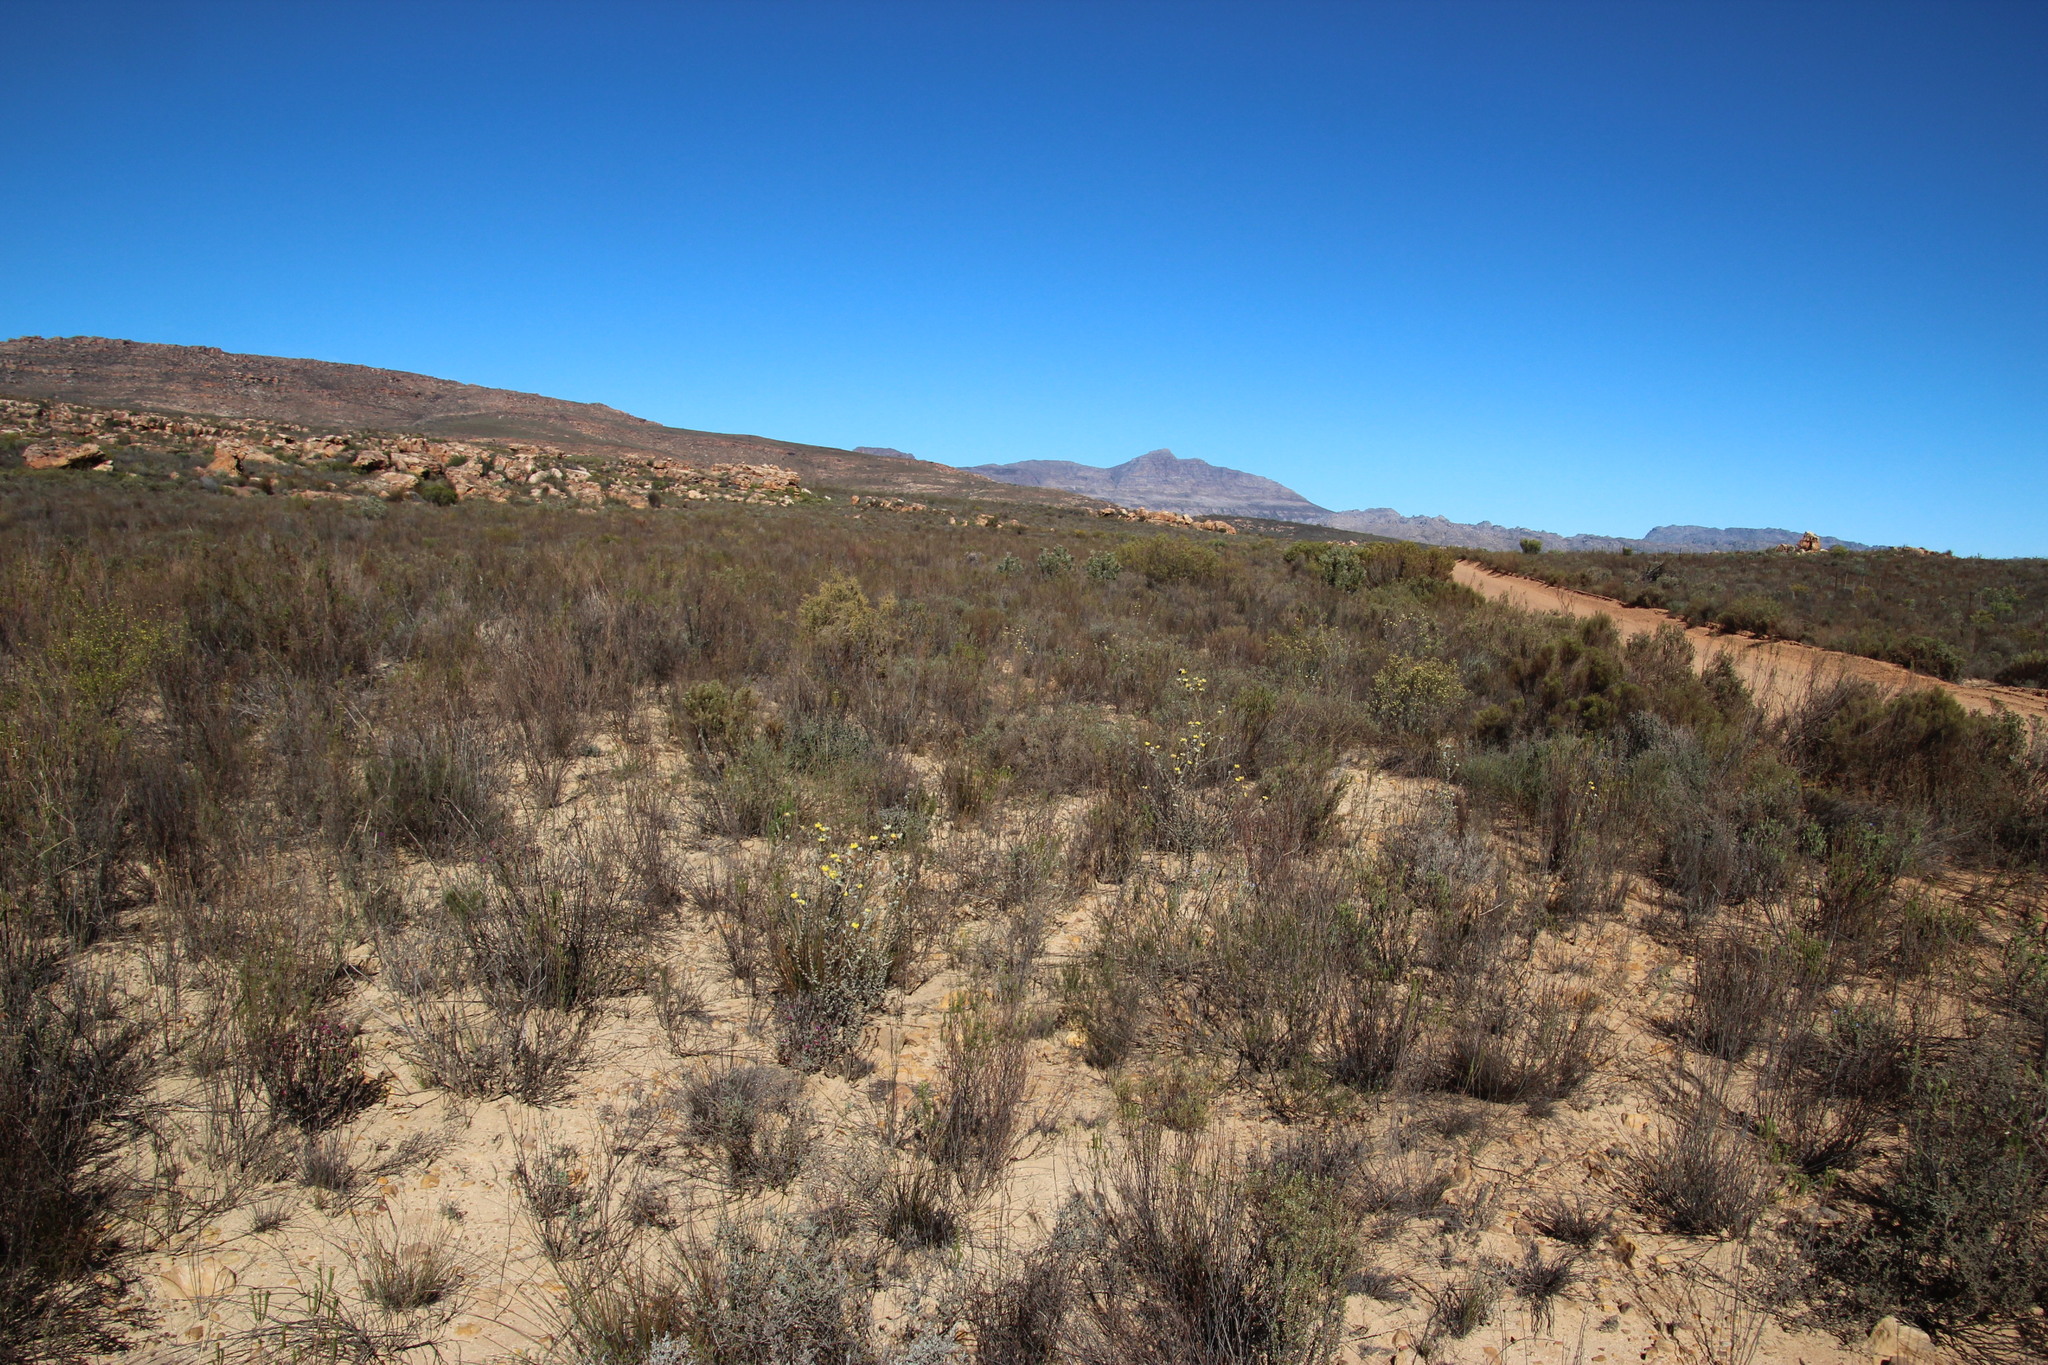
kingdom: Plantae
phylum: Tracheophyta
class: Magnoliopsida
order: Fabales
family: Fabaceae
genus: Aspalathus
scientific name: Aspalathus tridentata
